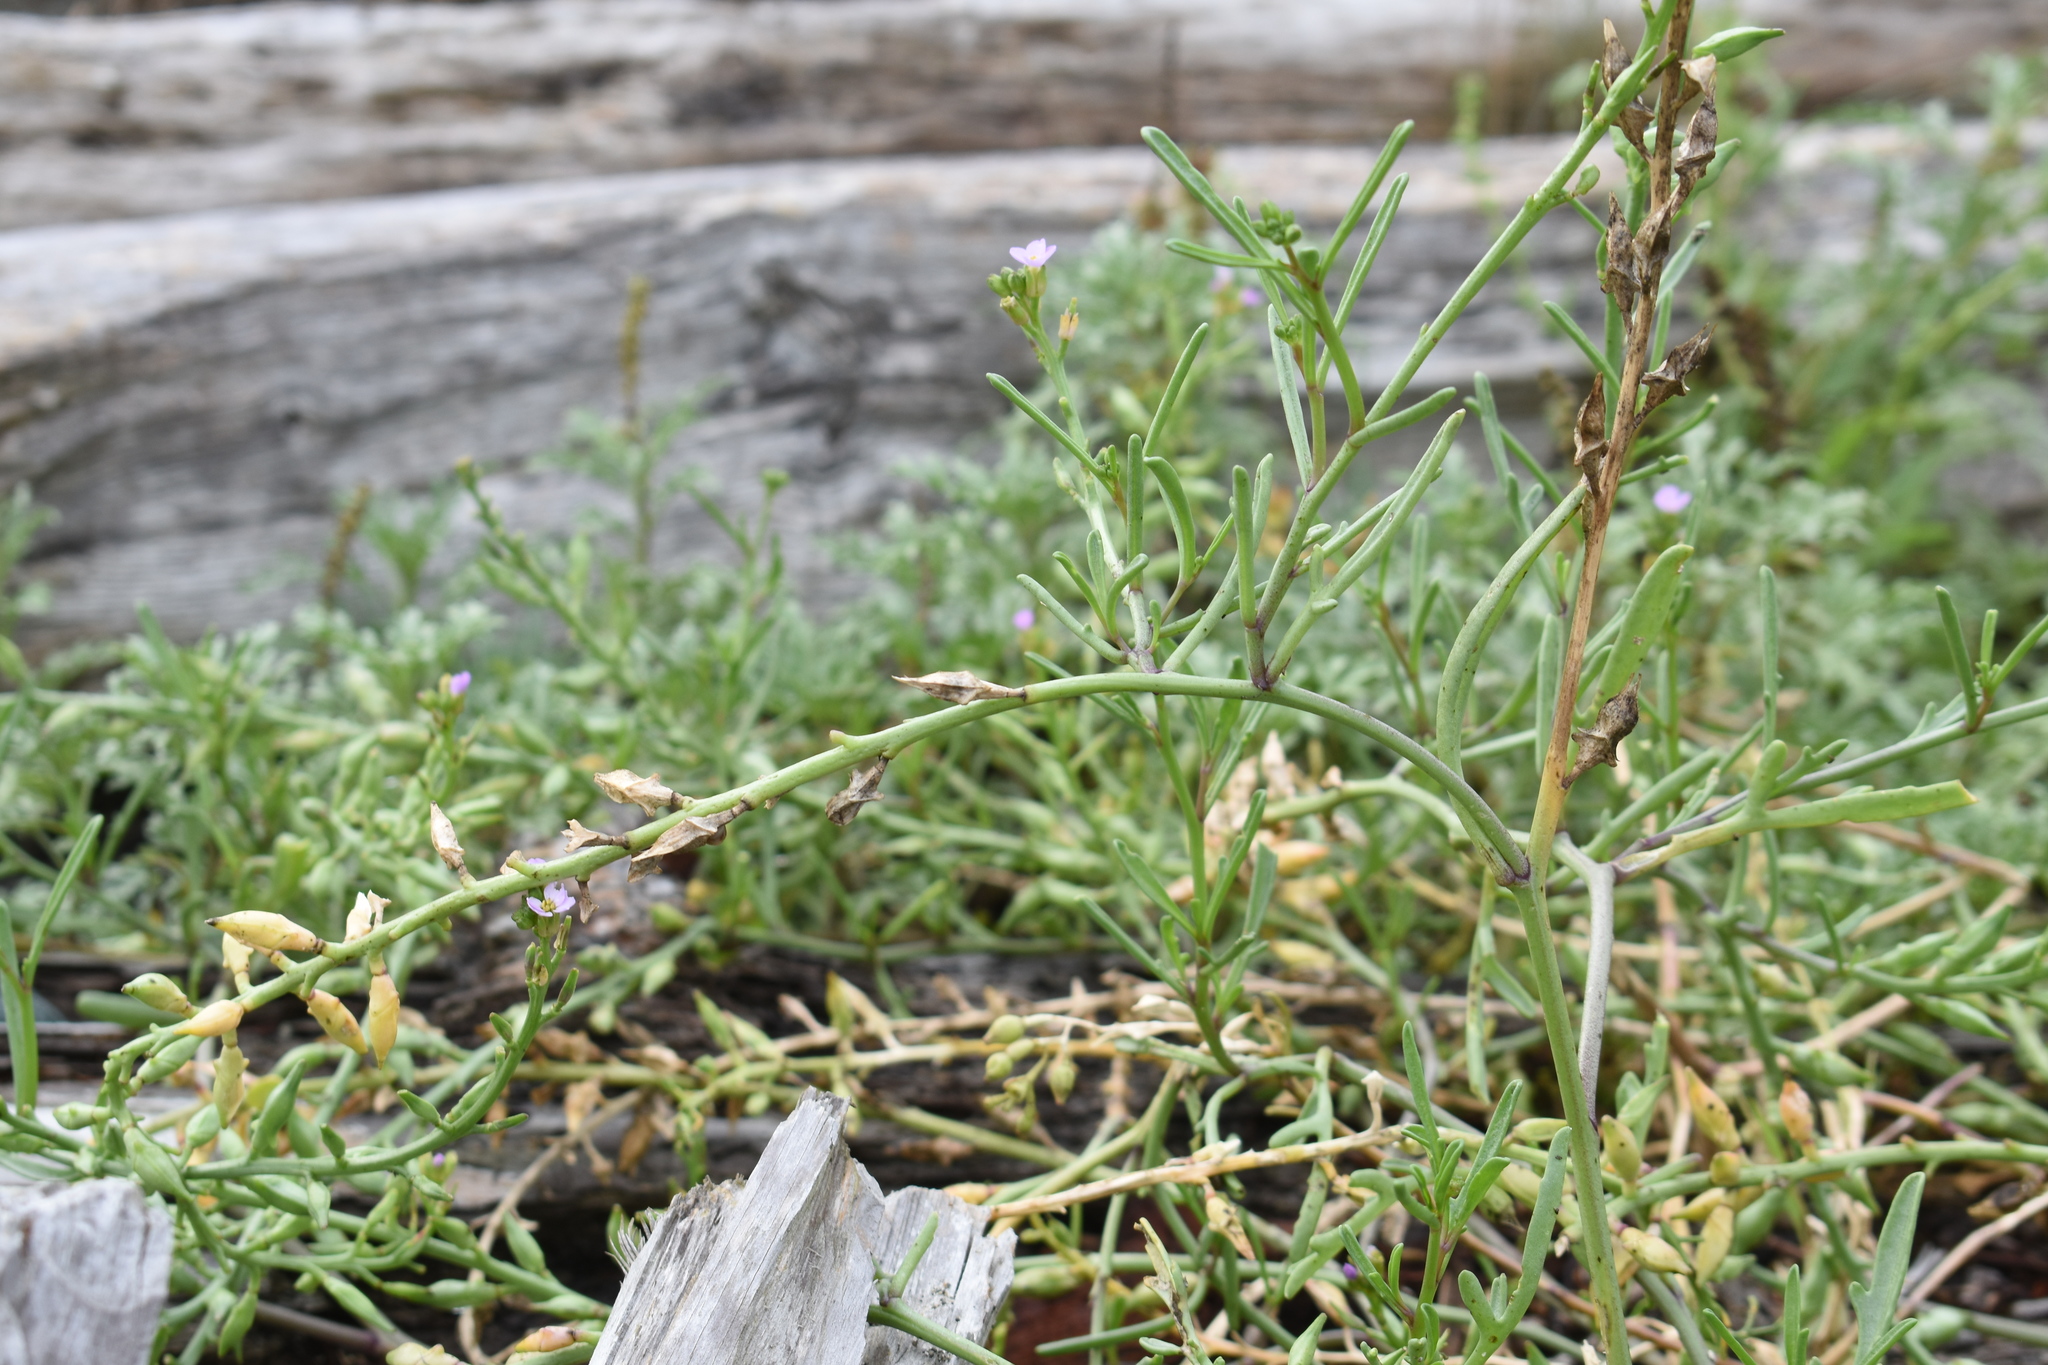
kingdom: Plantae
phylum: Tracheophyta
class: Magnoliopsida
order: Brassicales
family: Brassicaceae
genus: Cakile
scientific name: Cakile maritima
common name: Sea rocket
